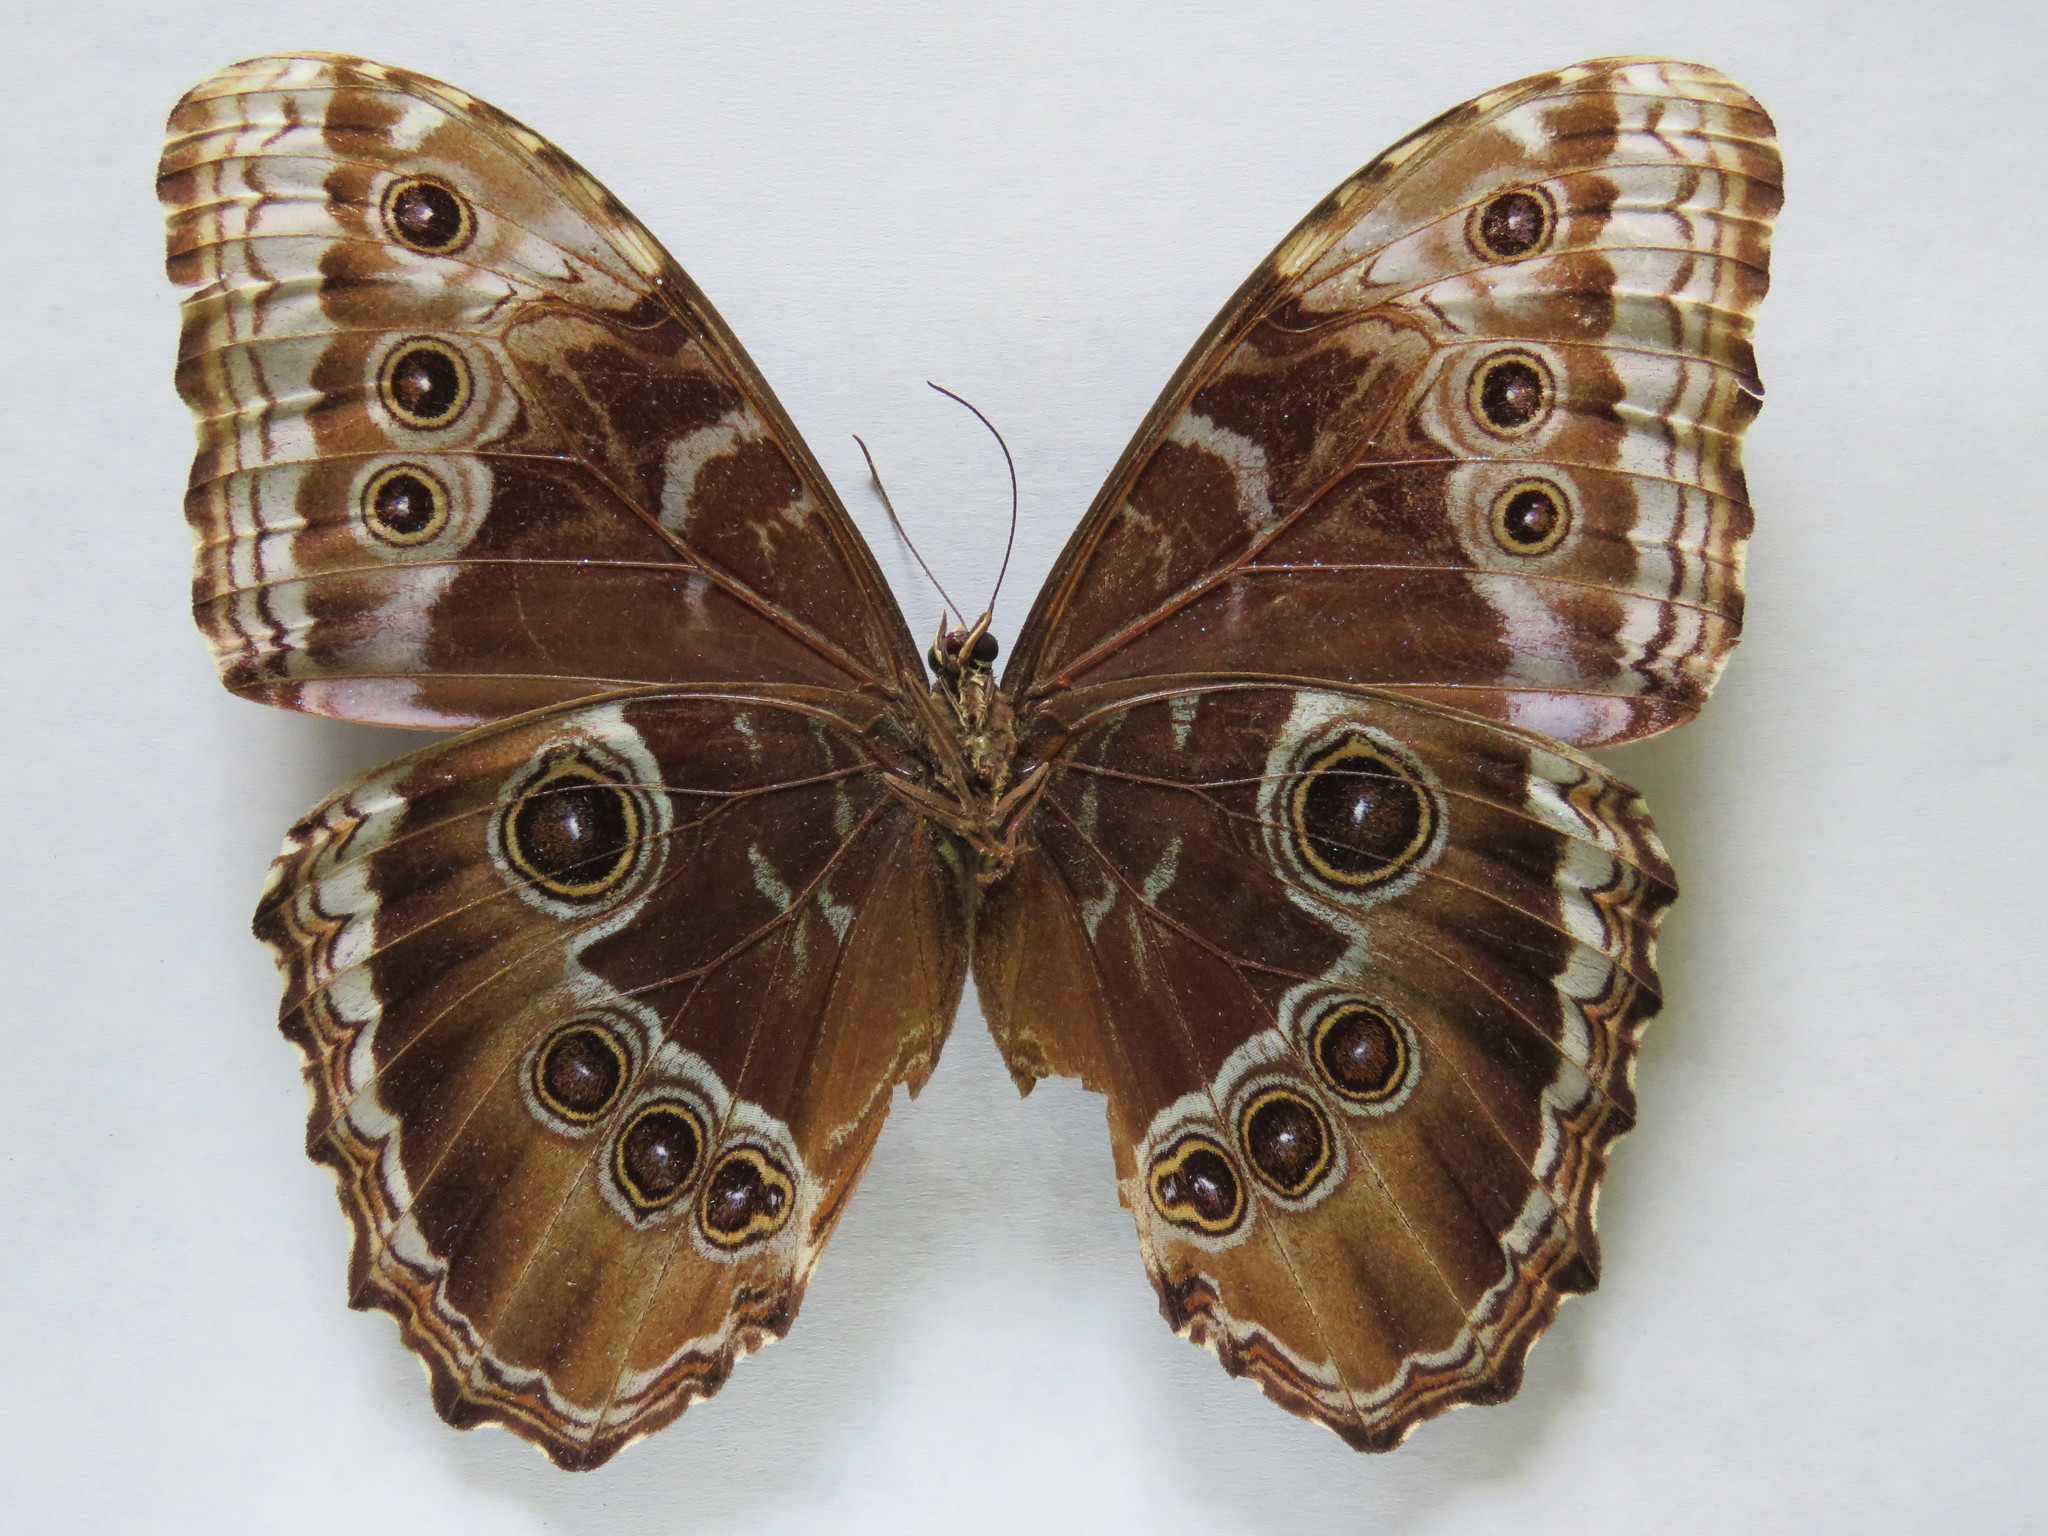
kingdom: Animalia
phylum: Arthropoda
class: Insecta
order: Lepidoptera
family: Nymphalidae
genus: Morpho
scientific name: Morpho helenor
